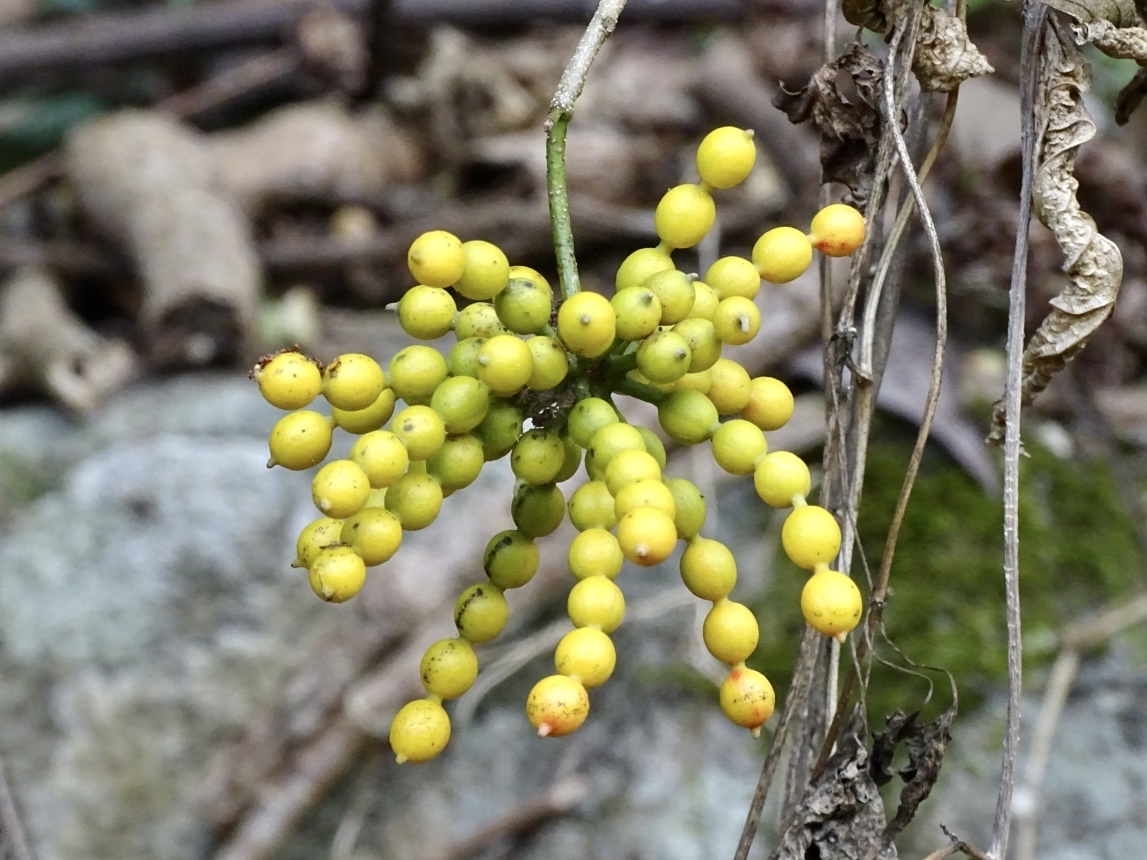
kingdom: Plantae
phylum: Tracheophyta
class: Magnoliopsida
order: Magnoliales
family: Annonaceae
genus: Desmos
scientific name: Desmos chinensis
